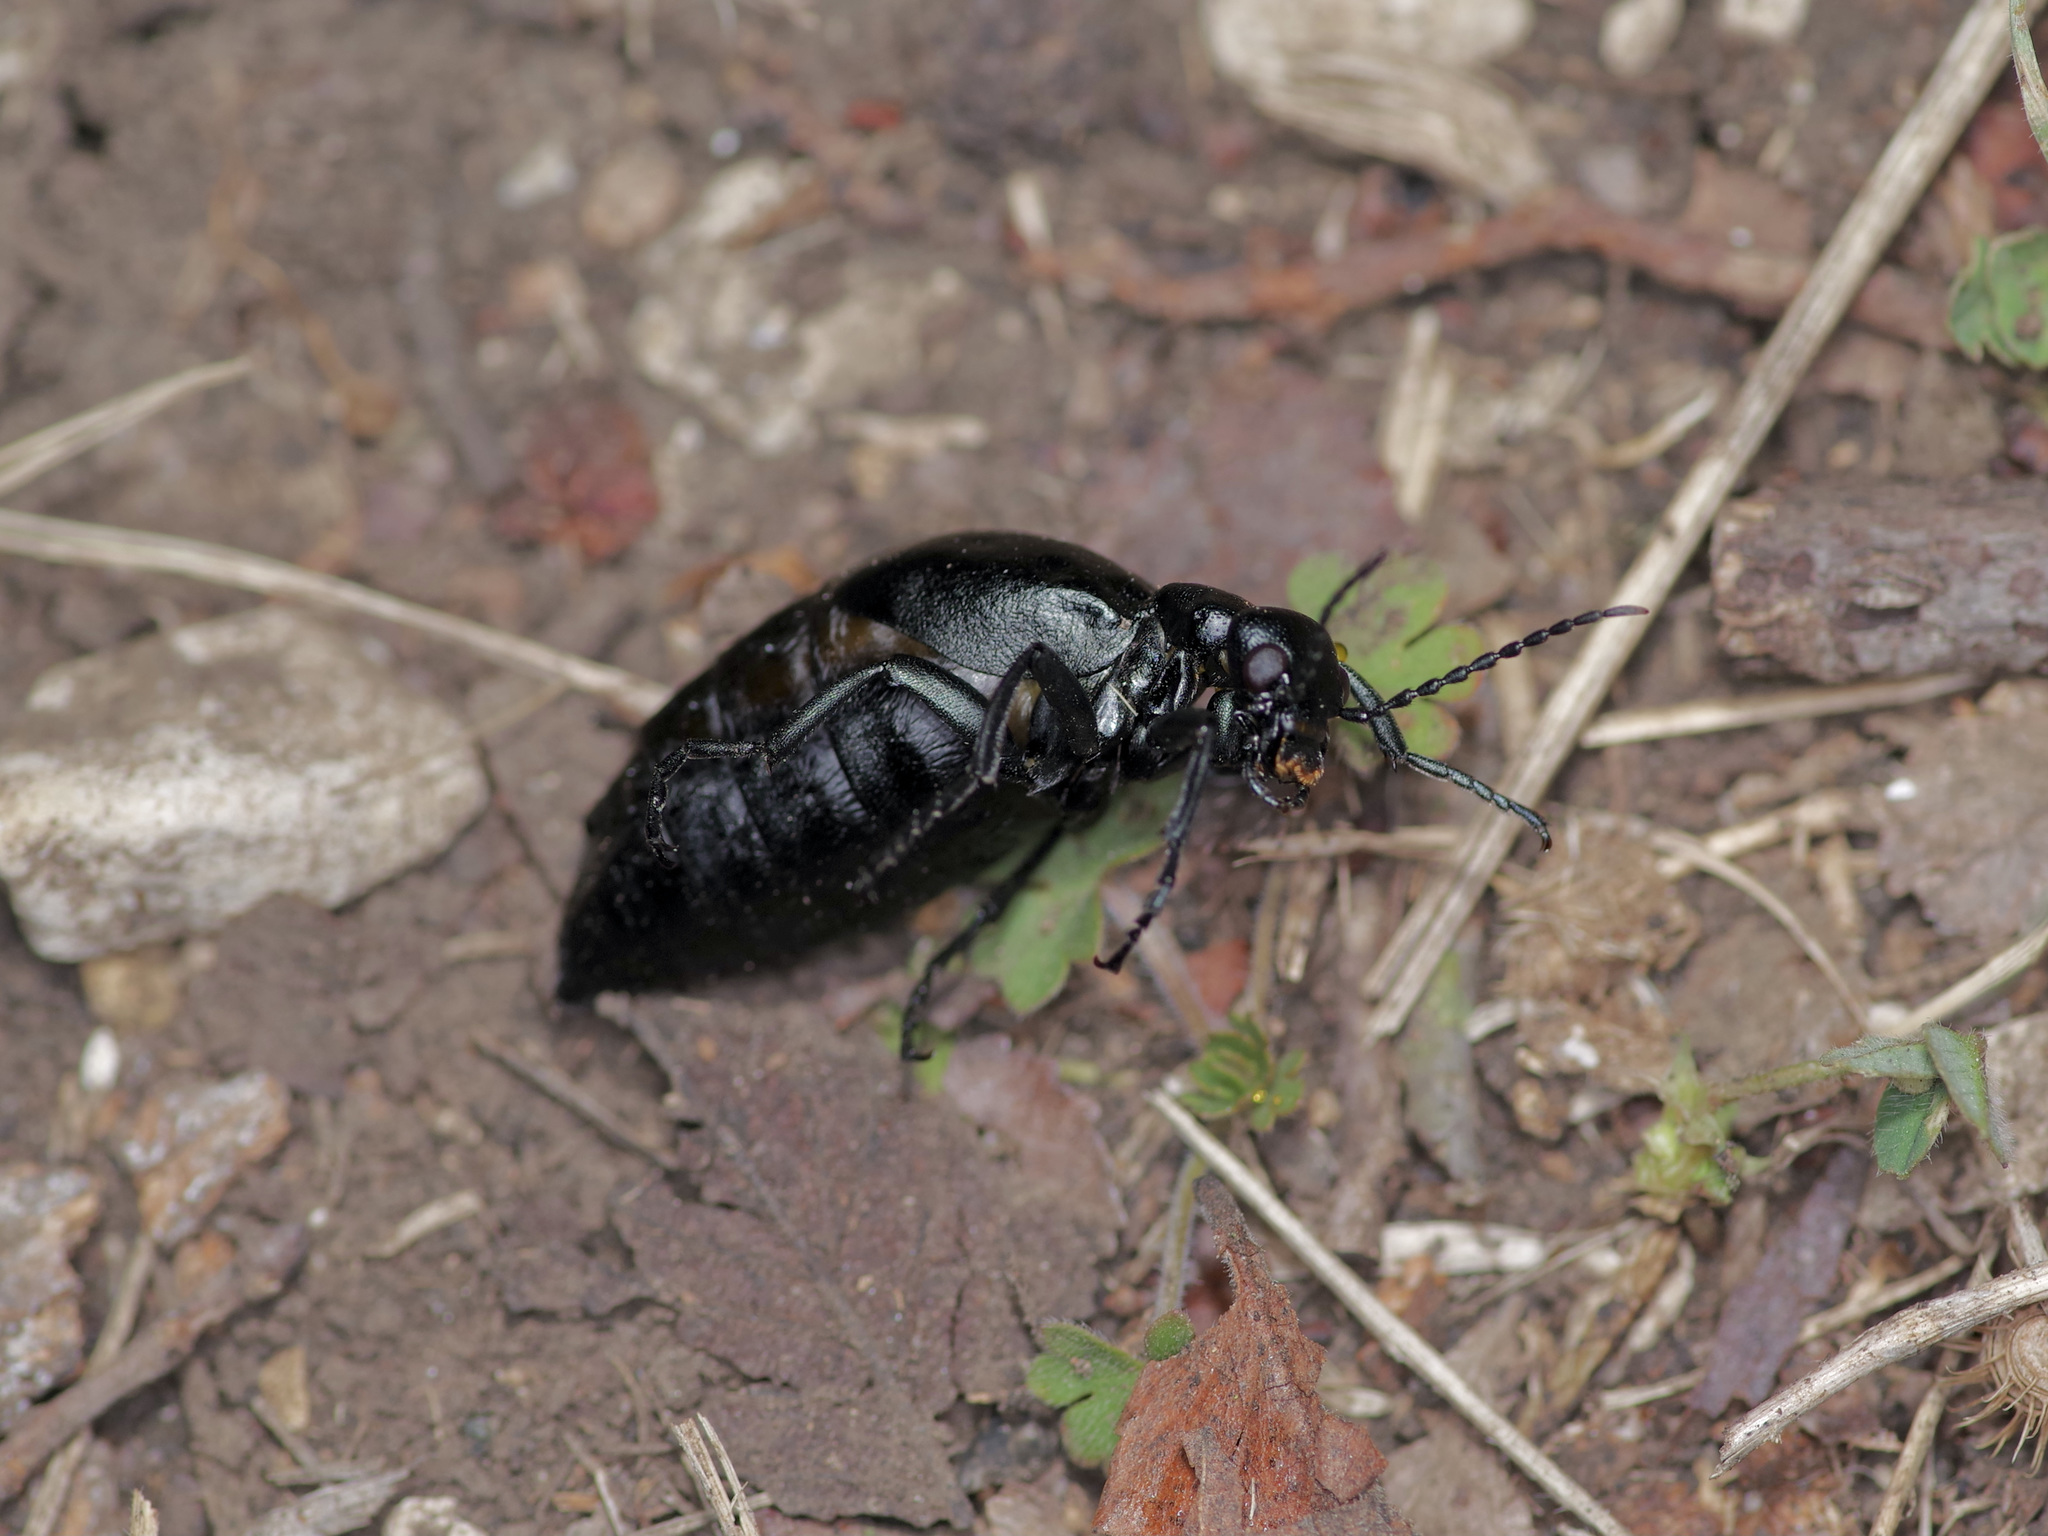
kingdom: Animalia
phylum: Arthropoda
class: Insecta
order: Coleoptera
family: Meloidae
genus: Meloe
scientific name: Meloe americanus
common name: Buttercup oil beetle
